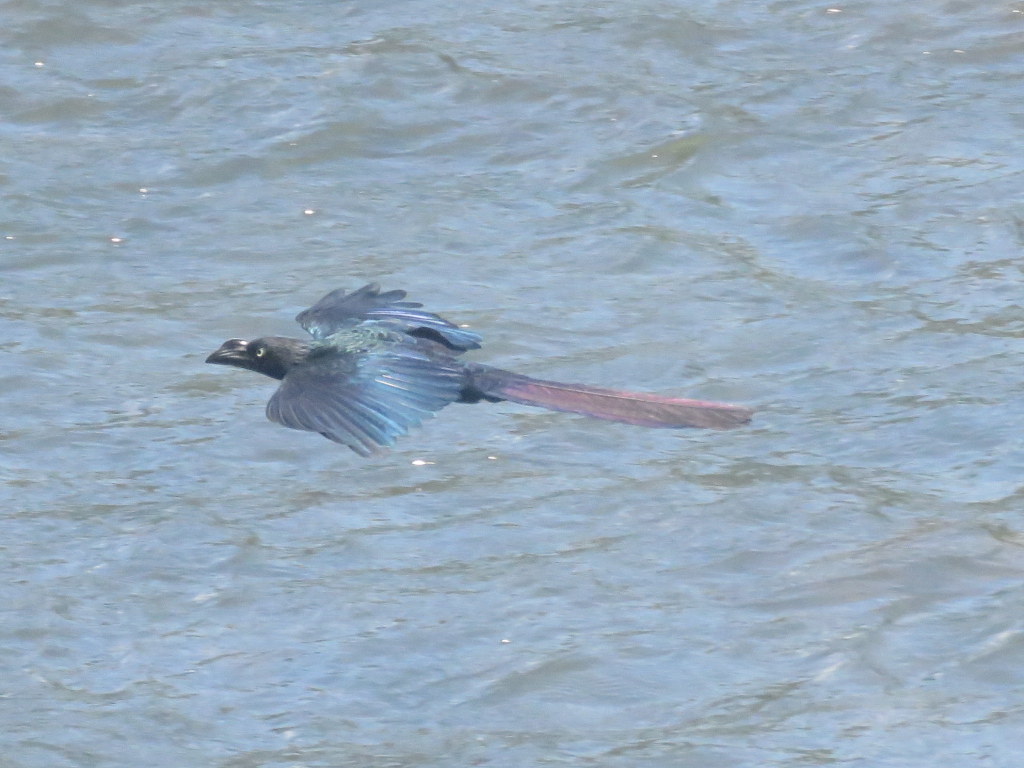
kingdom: Animalia
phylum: Chordata
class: Aves
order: Cuculiformes
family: Cuculidae
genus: Crotophaga
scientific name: Crotophaga major
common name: Greater ani
